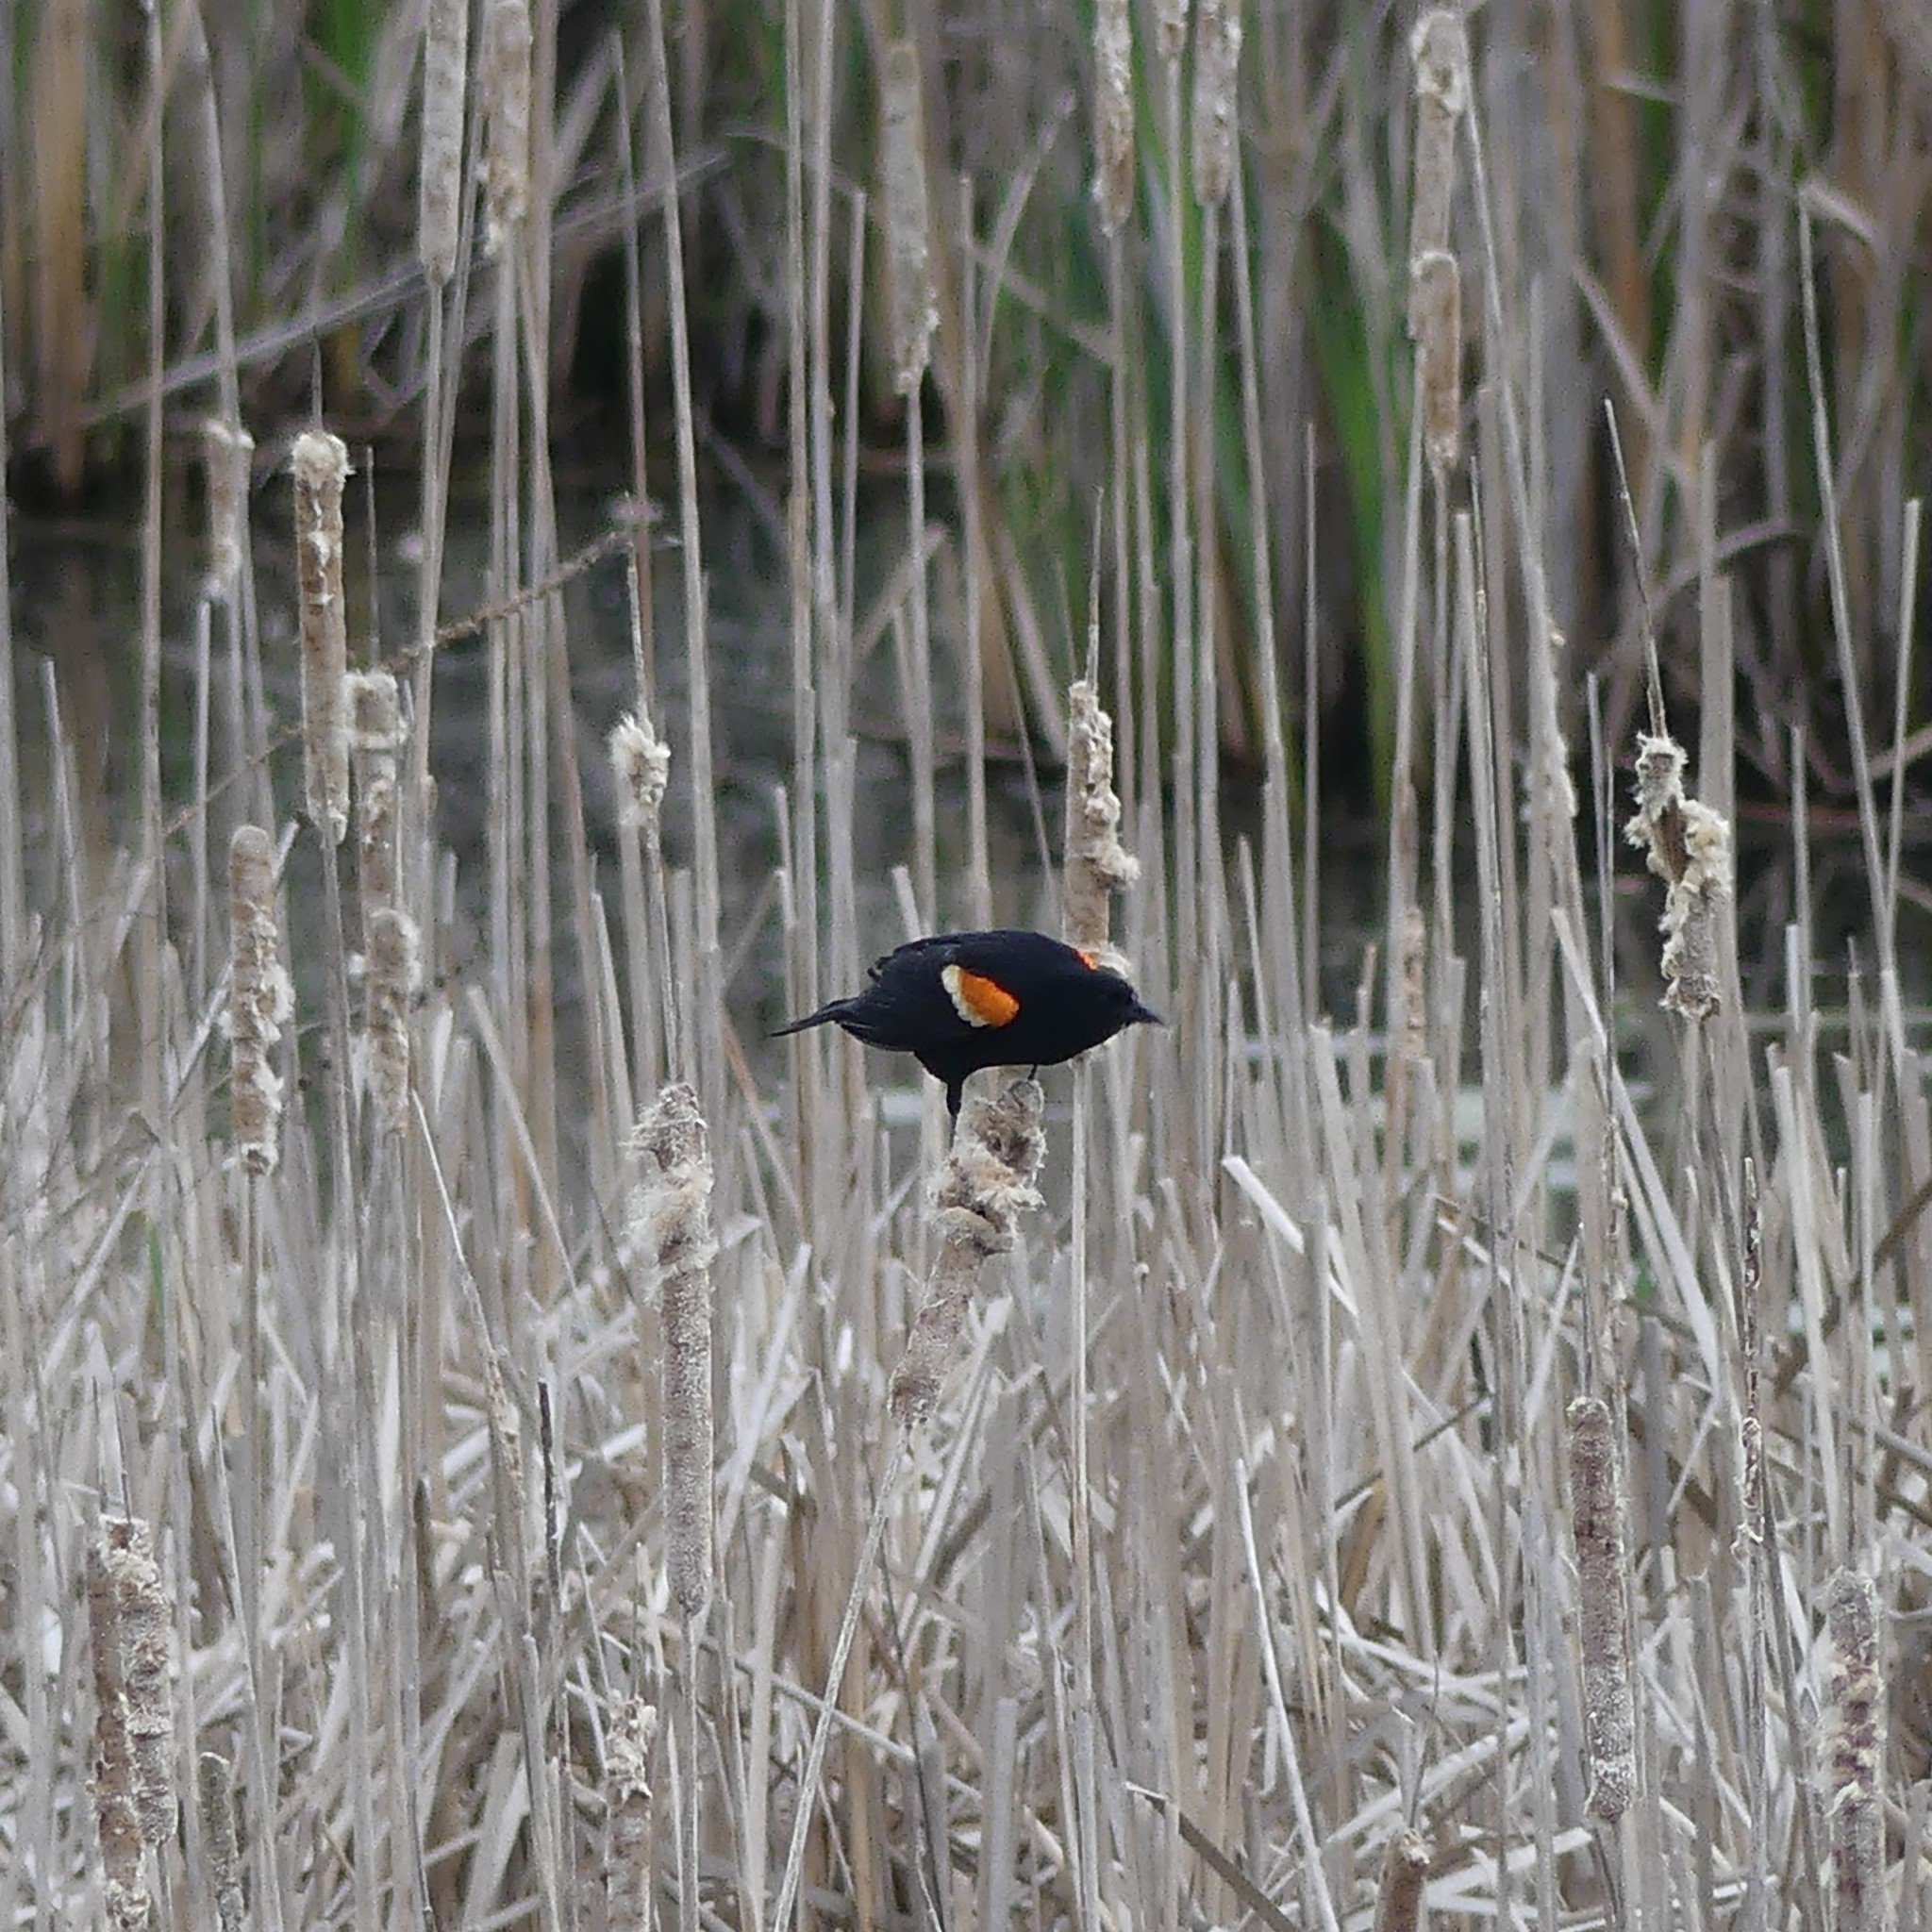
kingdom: Animalia
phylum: Chordata
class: Aves
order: Passeriformes
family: Icteridae
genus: Agelaius
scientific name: Agelaius phoeniceus
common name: Red-winged blackbird
